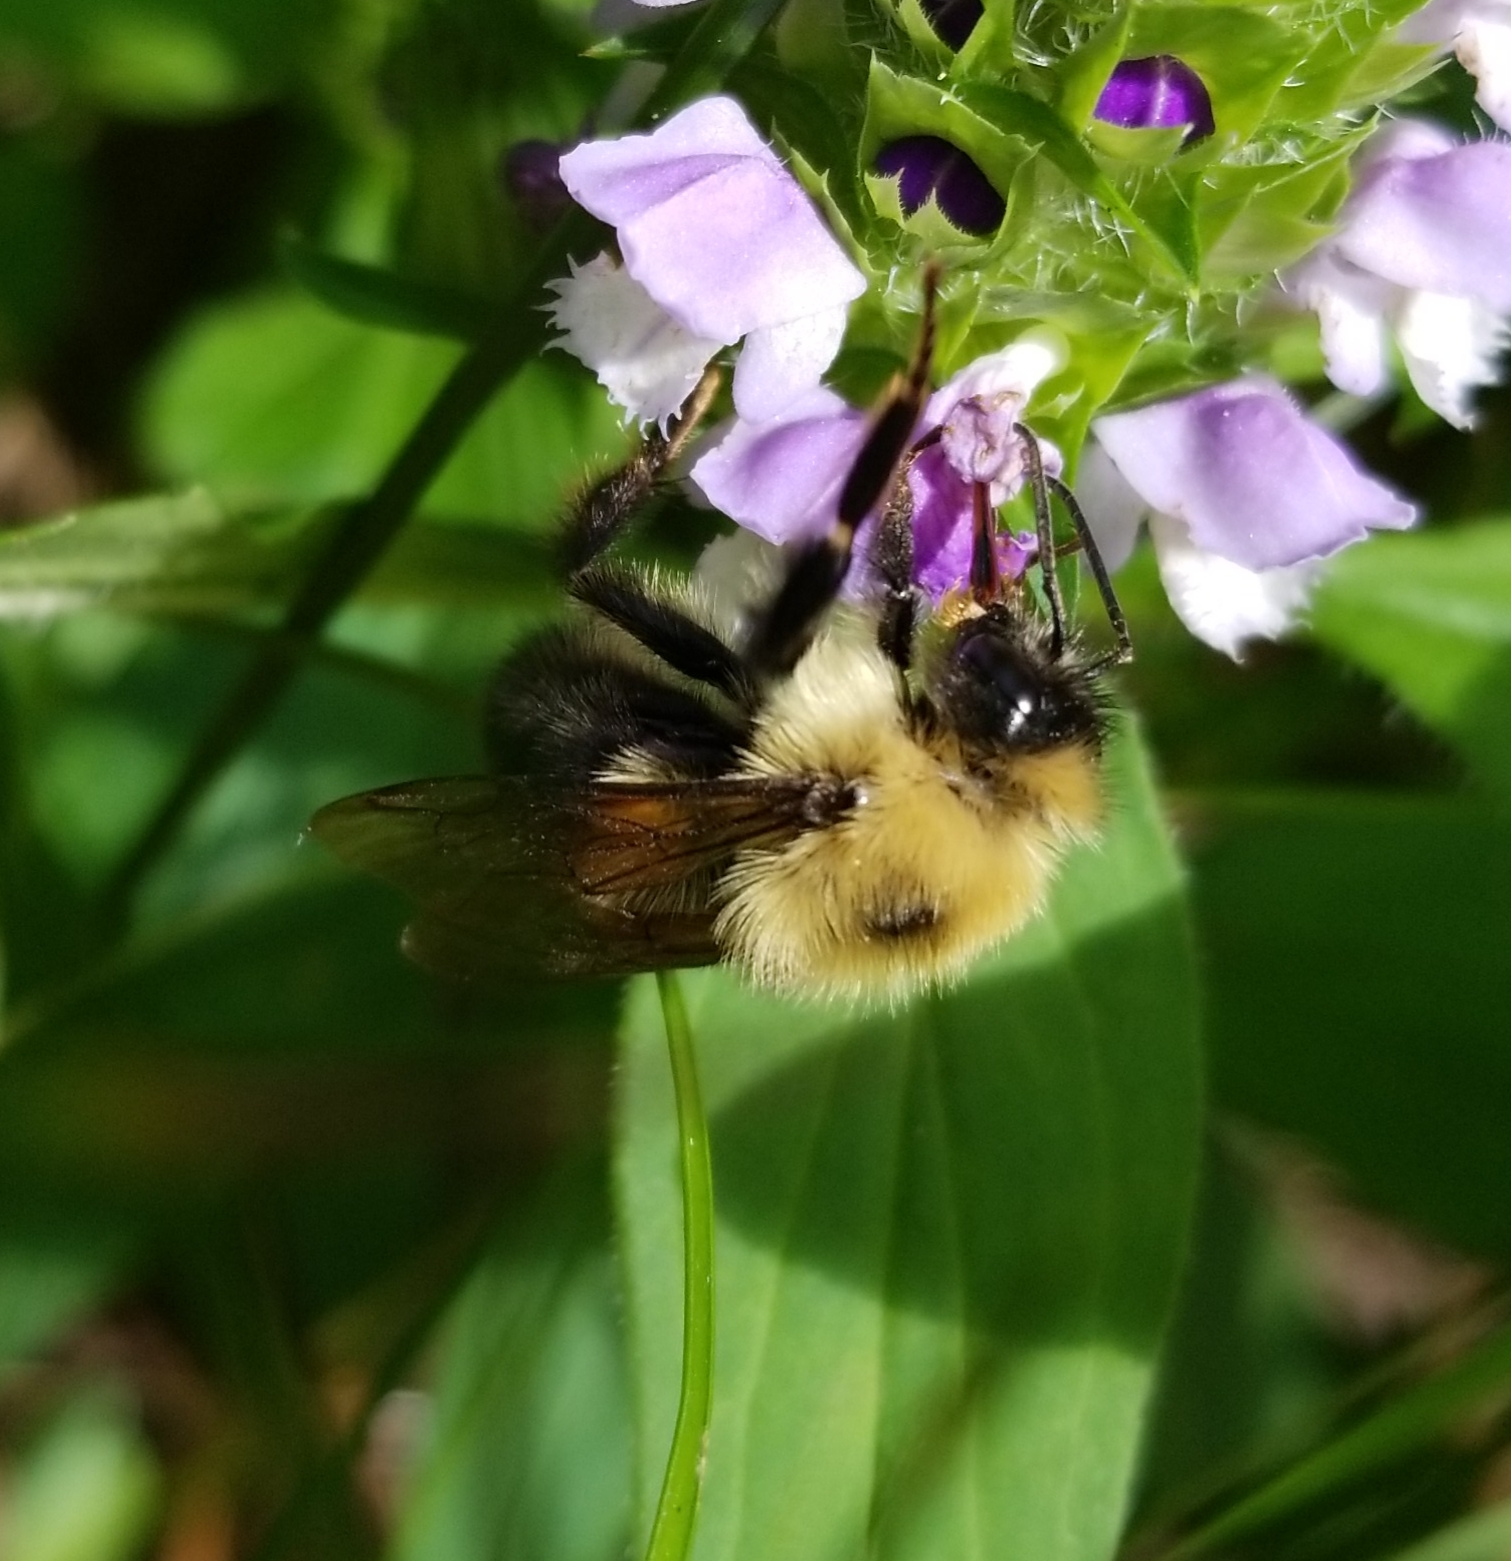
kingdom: Animalia
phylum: Arthropoda
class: Insecta
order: Hymenoptera
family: Apidae
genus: Bombus
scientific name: Bombus bimaculatus
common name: Two-spotted bumble bee
